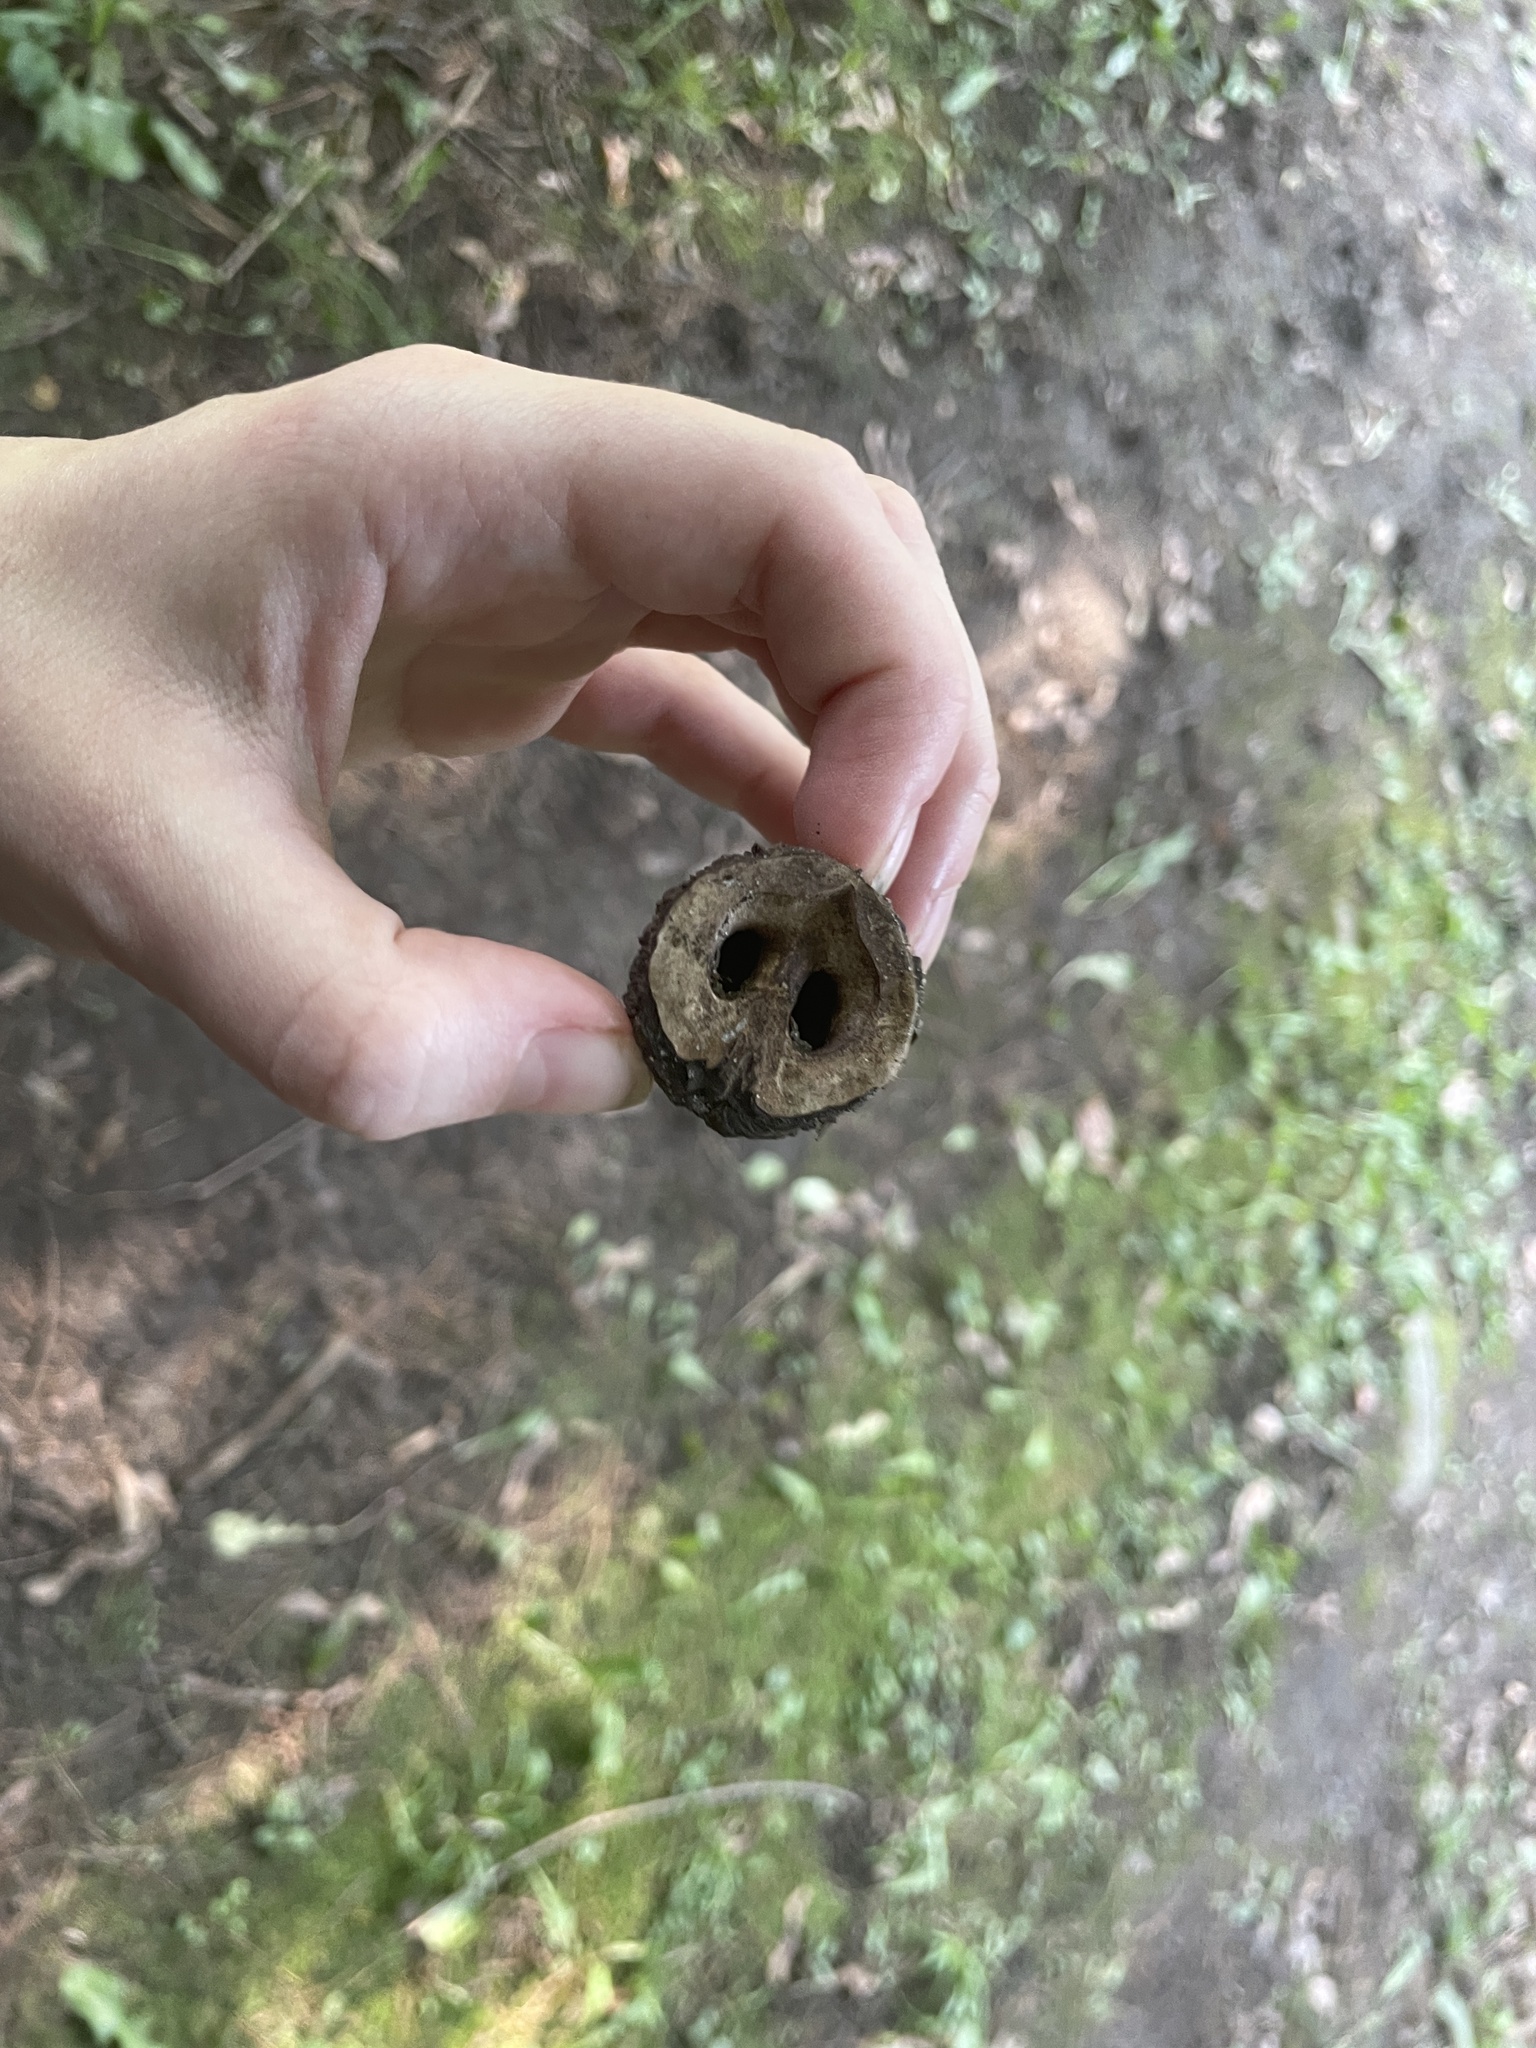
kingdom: Plantae
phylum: Tracheophyta
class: Magnoliopsida
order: Fagales
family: Juglandaceae
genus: Juglans
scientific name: Juglans nigra
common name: Black walnut
